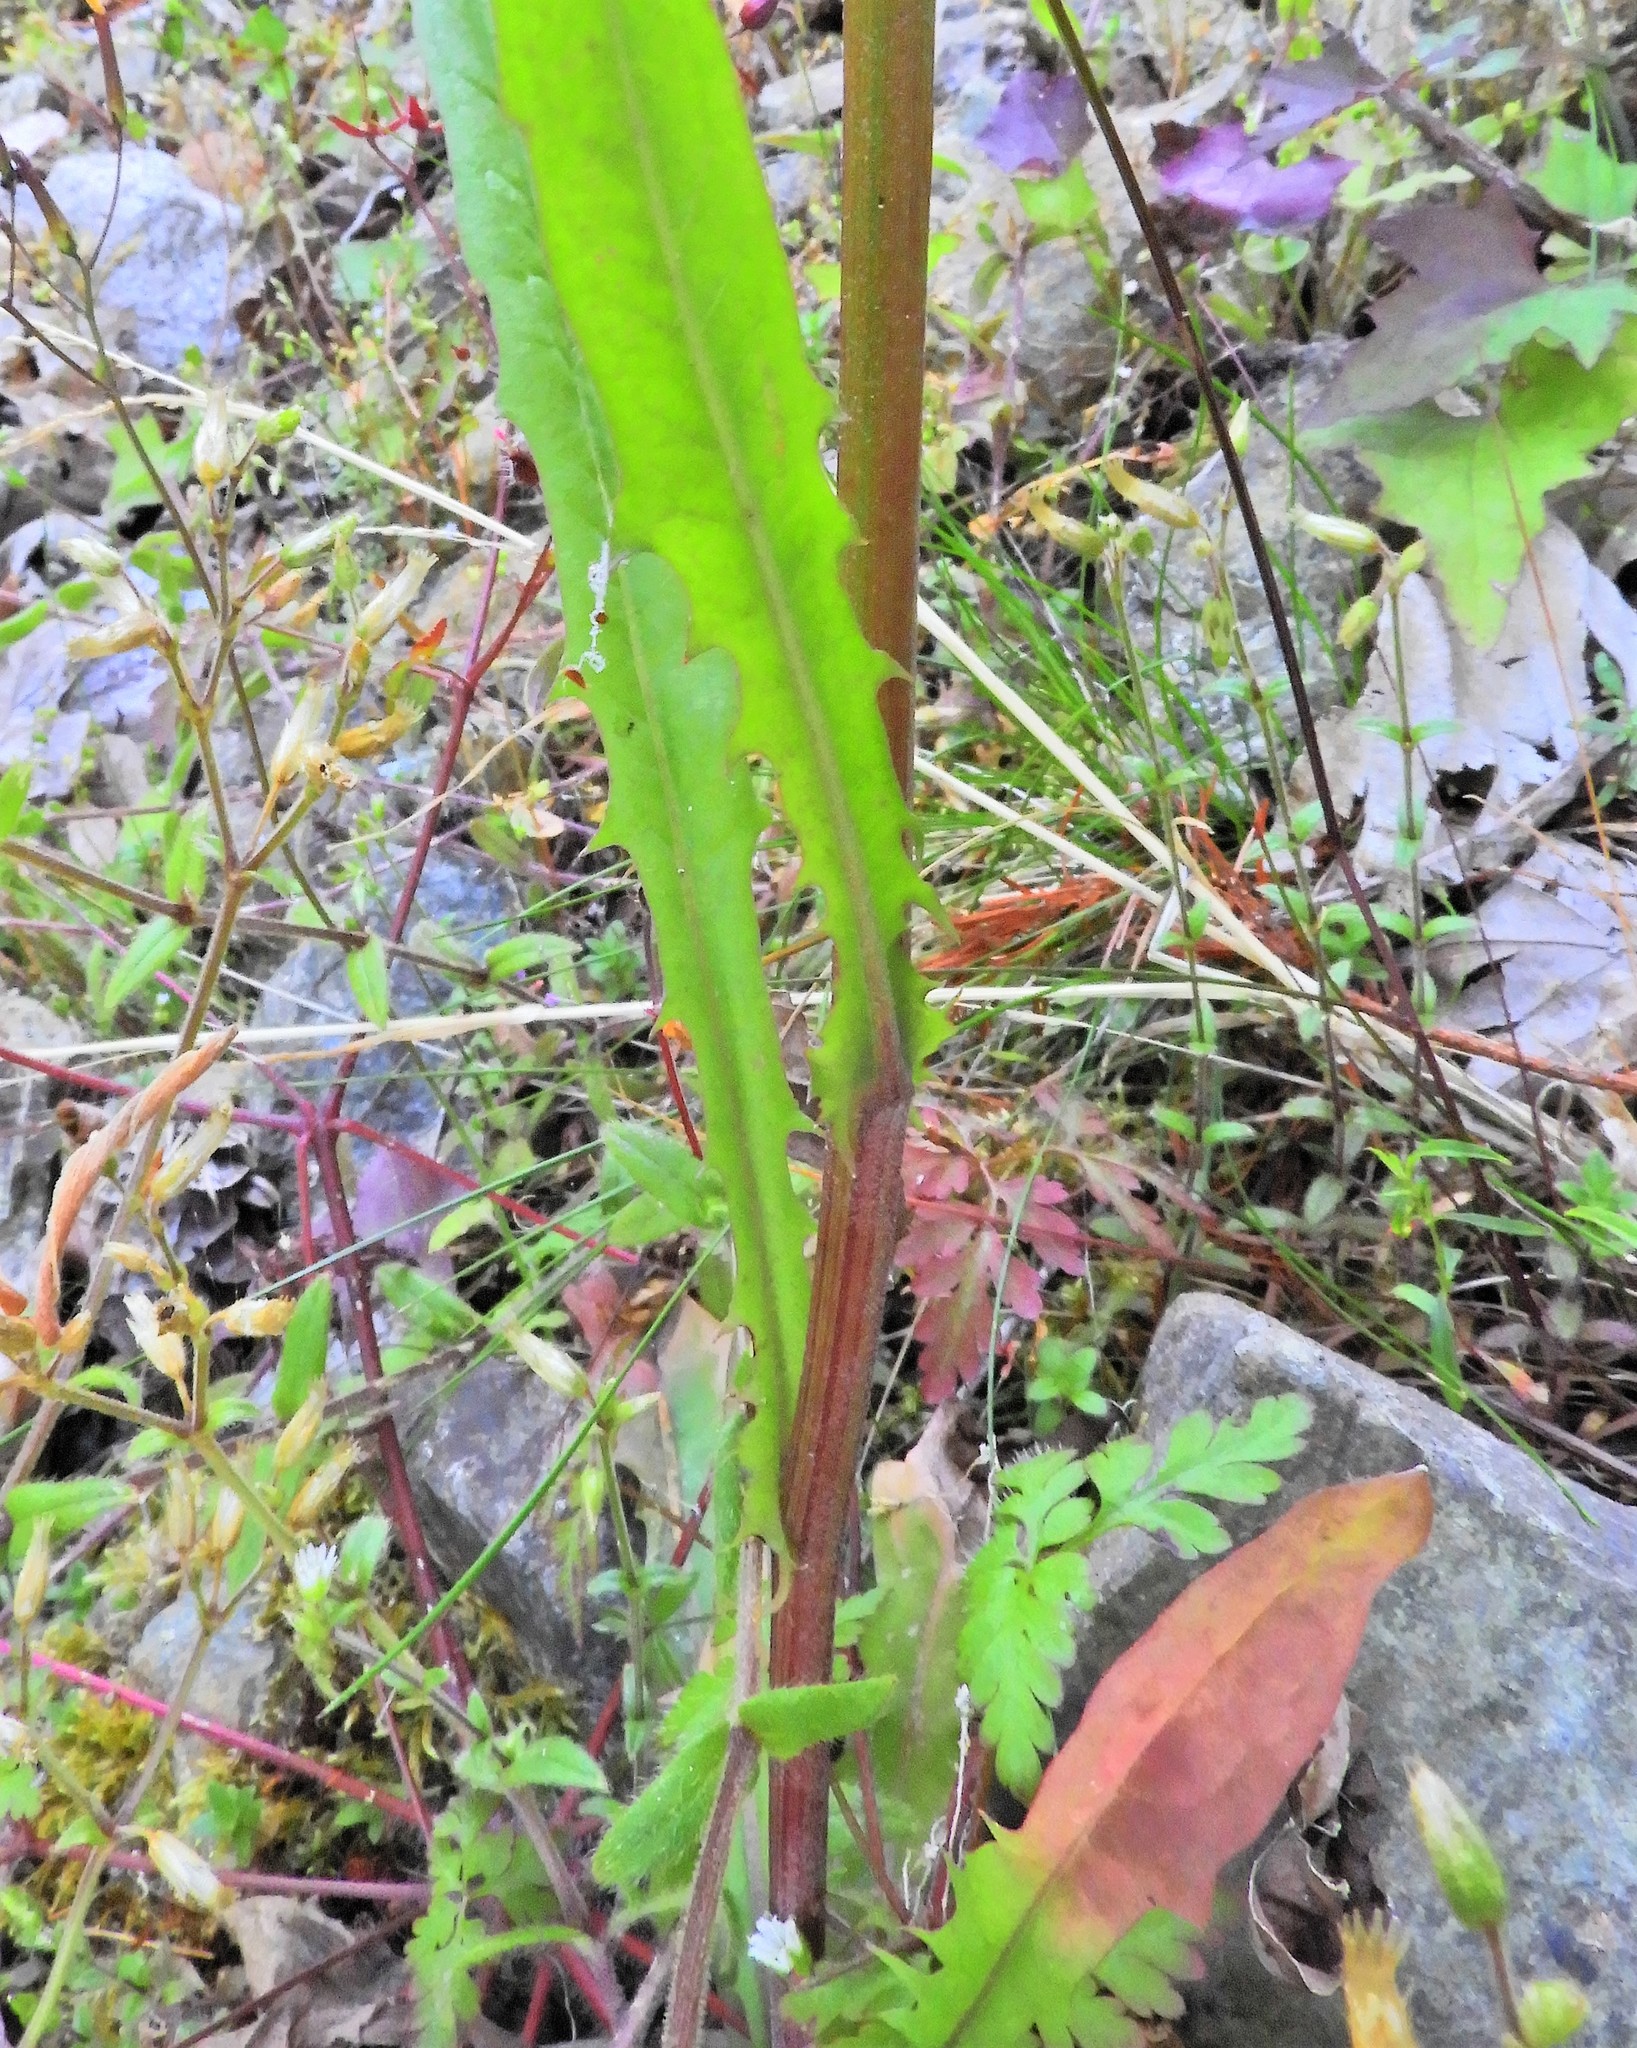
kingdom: Plantae
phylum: Tracheophyta
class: Magnoliopsida
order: Asterales
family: Asteraceae
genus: Crepis
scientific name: Crepis capillaris
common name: Smooth hawksbeard
